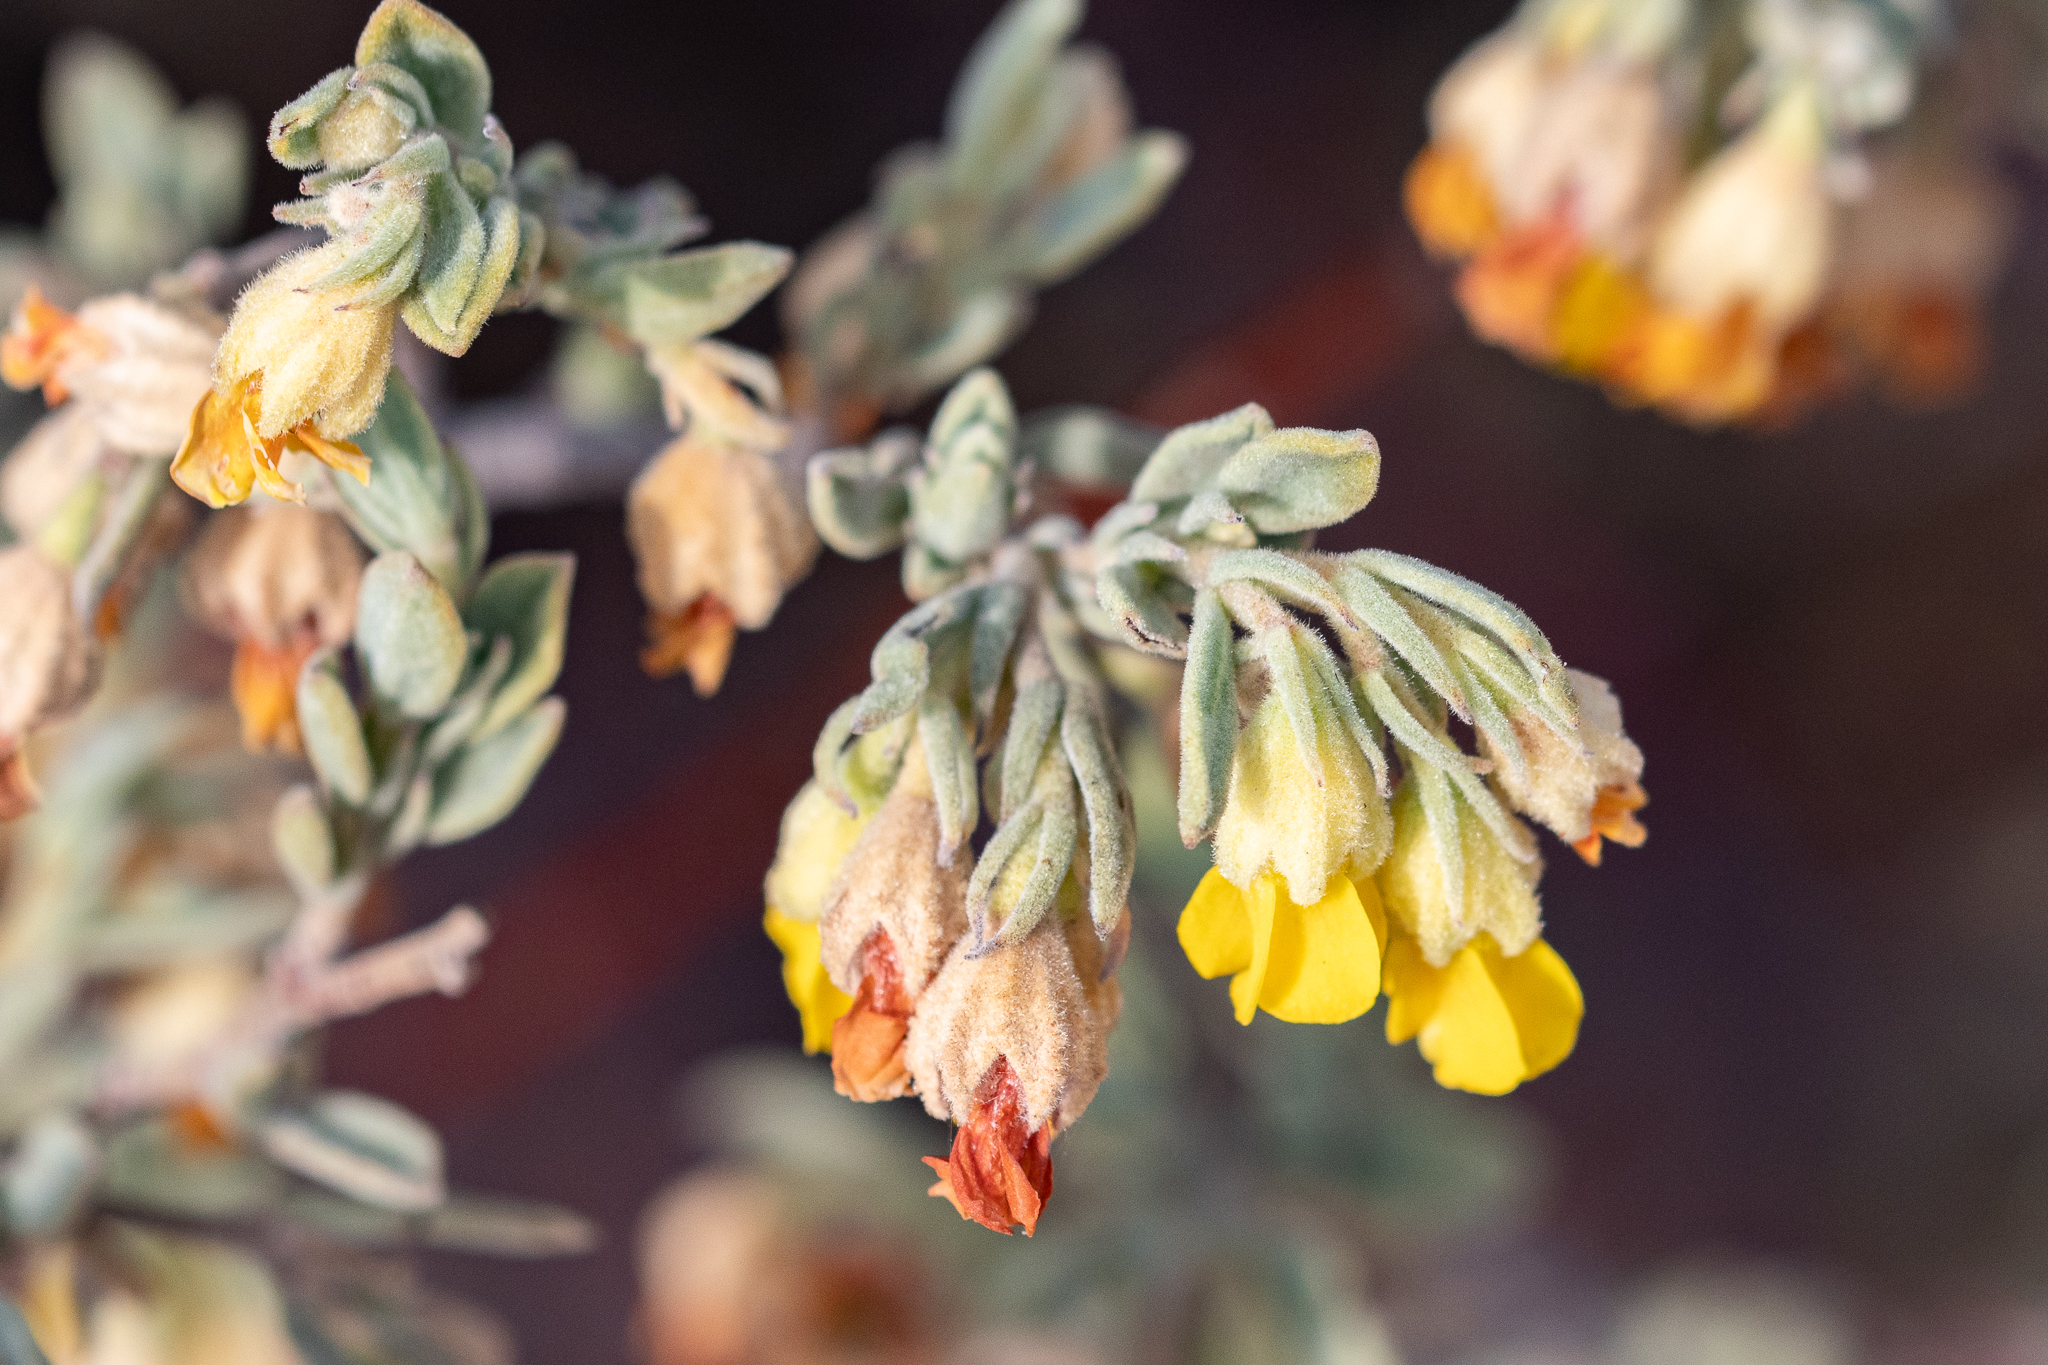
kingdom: Plantae
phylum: Tracheophyta
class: Magnoliopsida
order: Malvales
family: Malvaceae
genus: Hermannia
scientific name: Hermannia velutina
